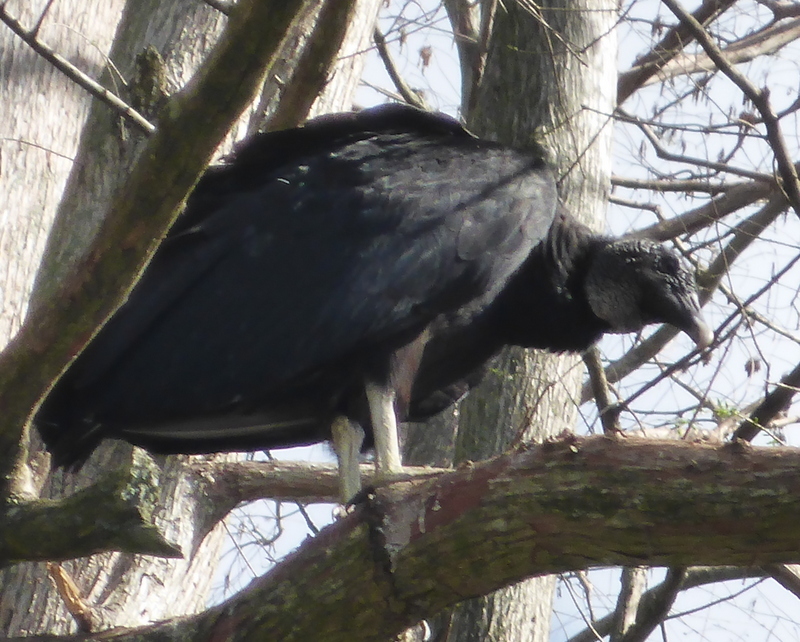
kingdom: Animalia
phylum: Chordata
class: Aves
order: Accipitriformes
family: Cathartidae
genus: Coragyps
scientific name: Coragyps atratus
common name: Black vulture
